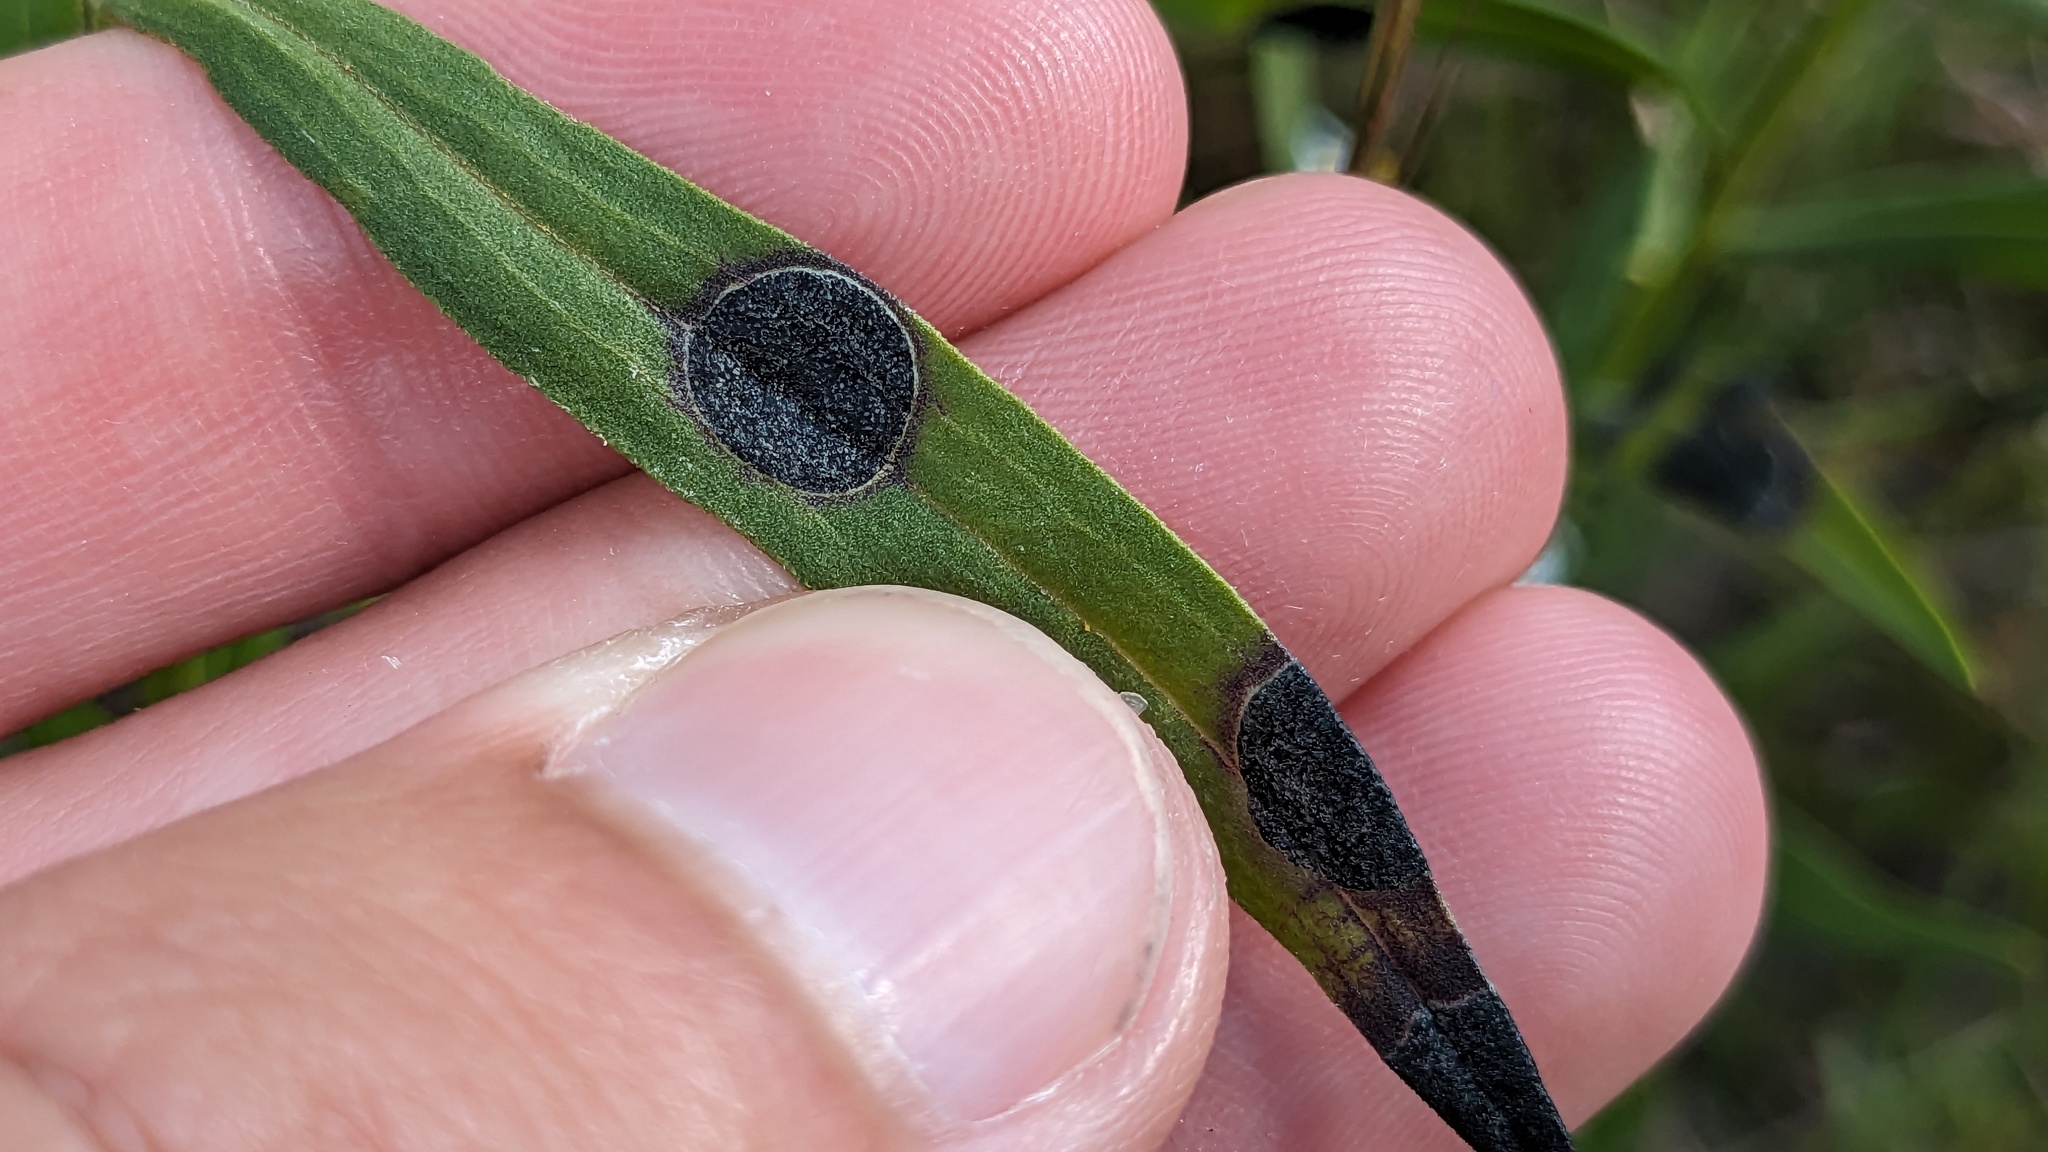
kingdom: Animalia
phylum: Arthropoda
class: Insecta
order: Diptera
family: Cecidomyiidae
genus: Asteromyia
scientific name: Asteromyia euthamiae
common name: Euthamia leaf gall midge
